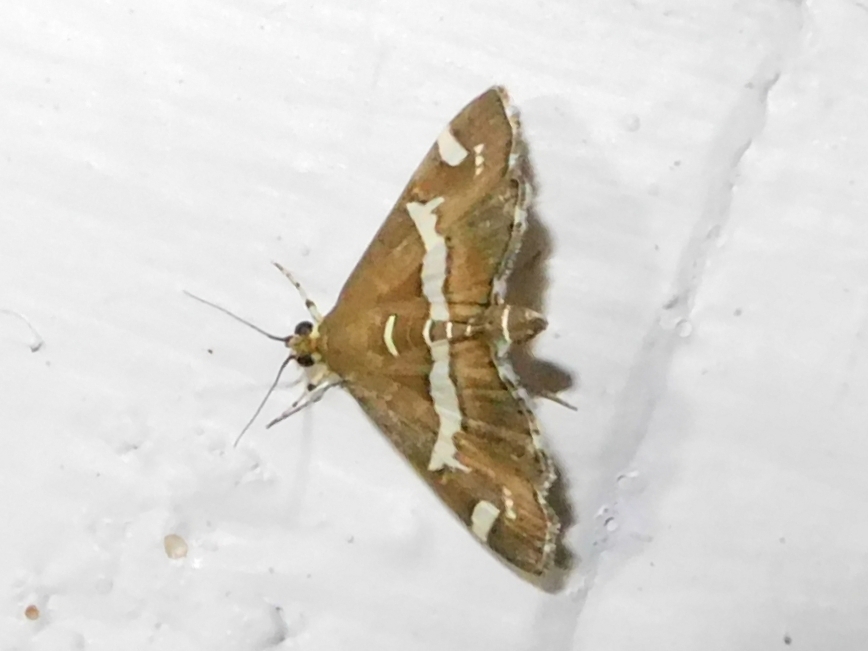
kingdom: Animalia
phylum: Arthropoda
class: Insecta
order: Lepidoptera
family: Crambidae
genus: Spoladea
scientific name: Spoladea recurvalis
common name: Beet webworm moth
